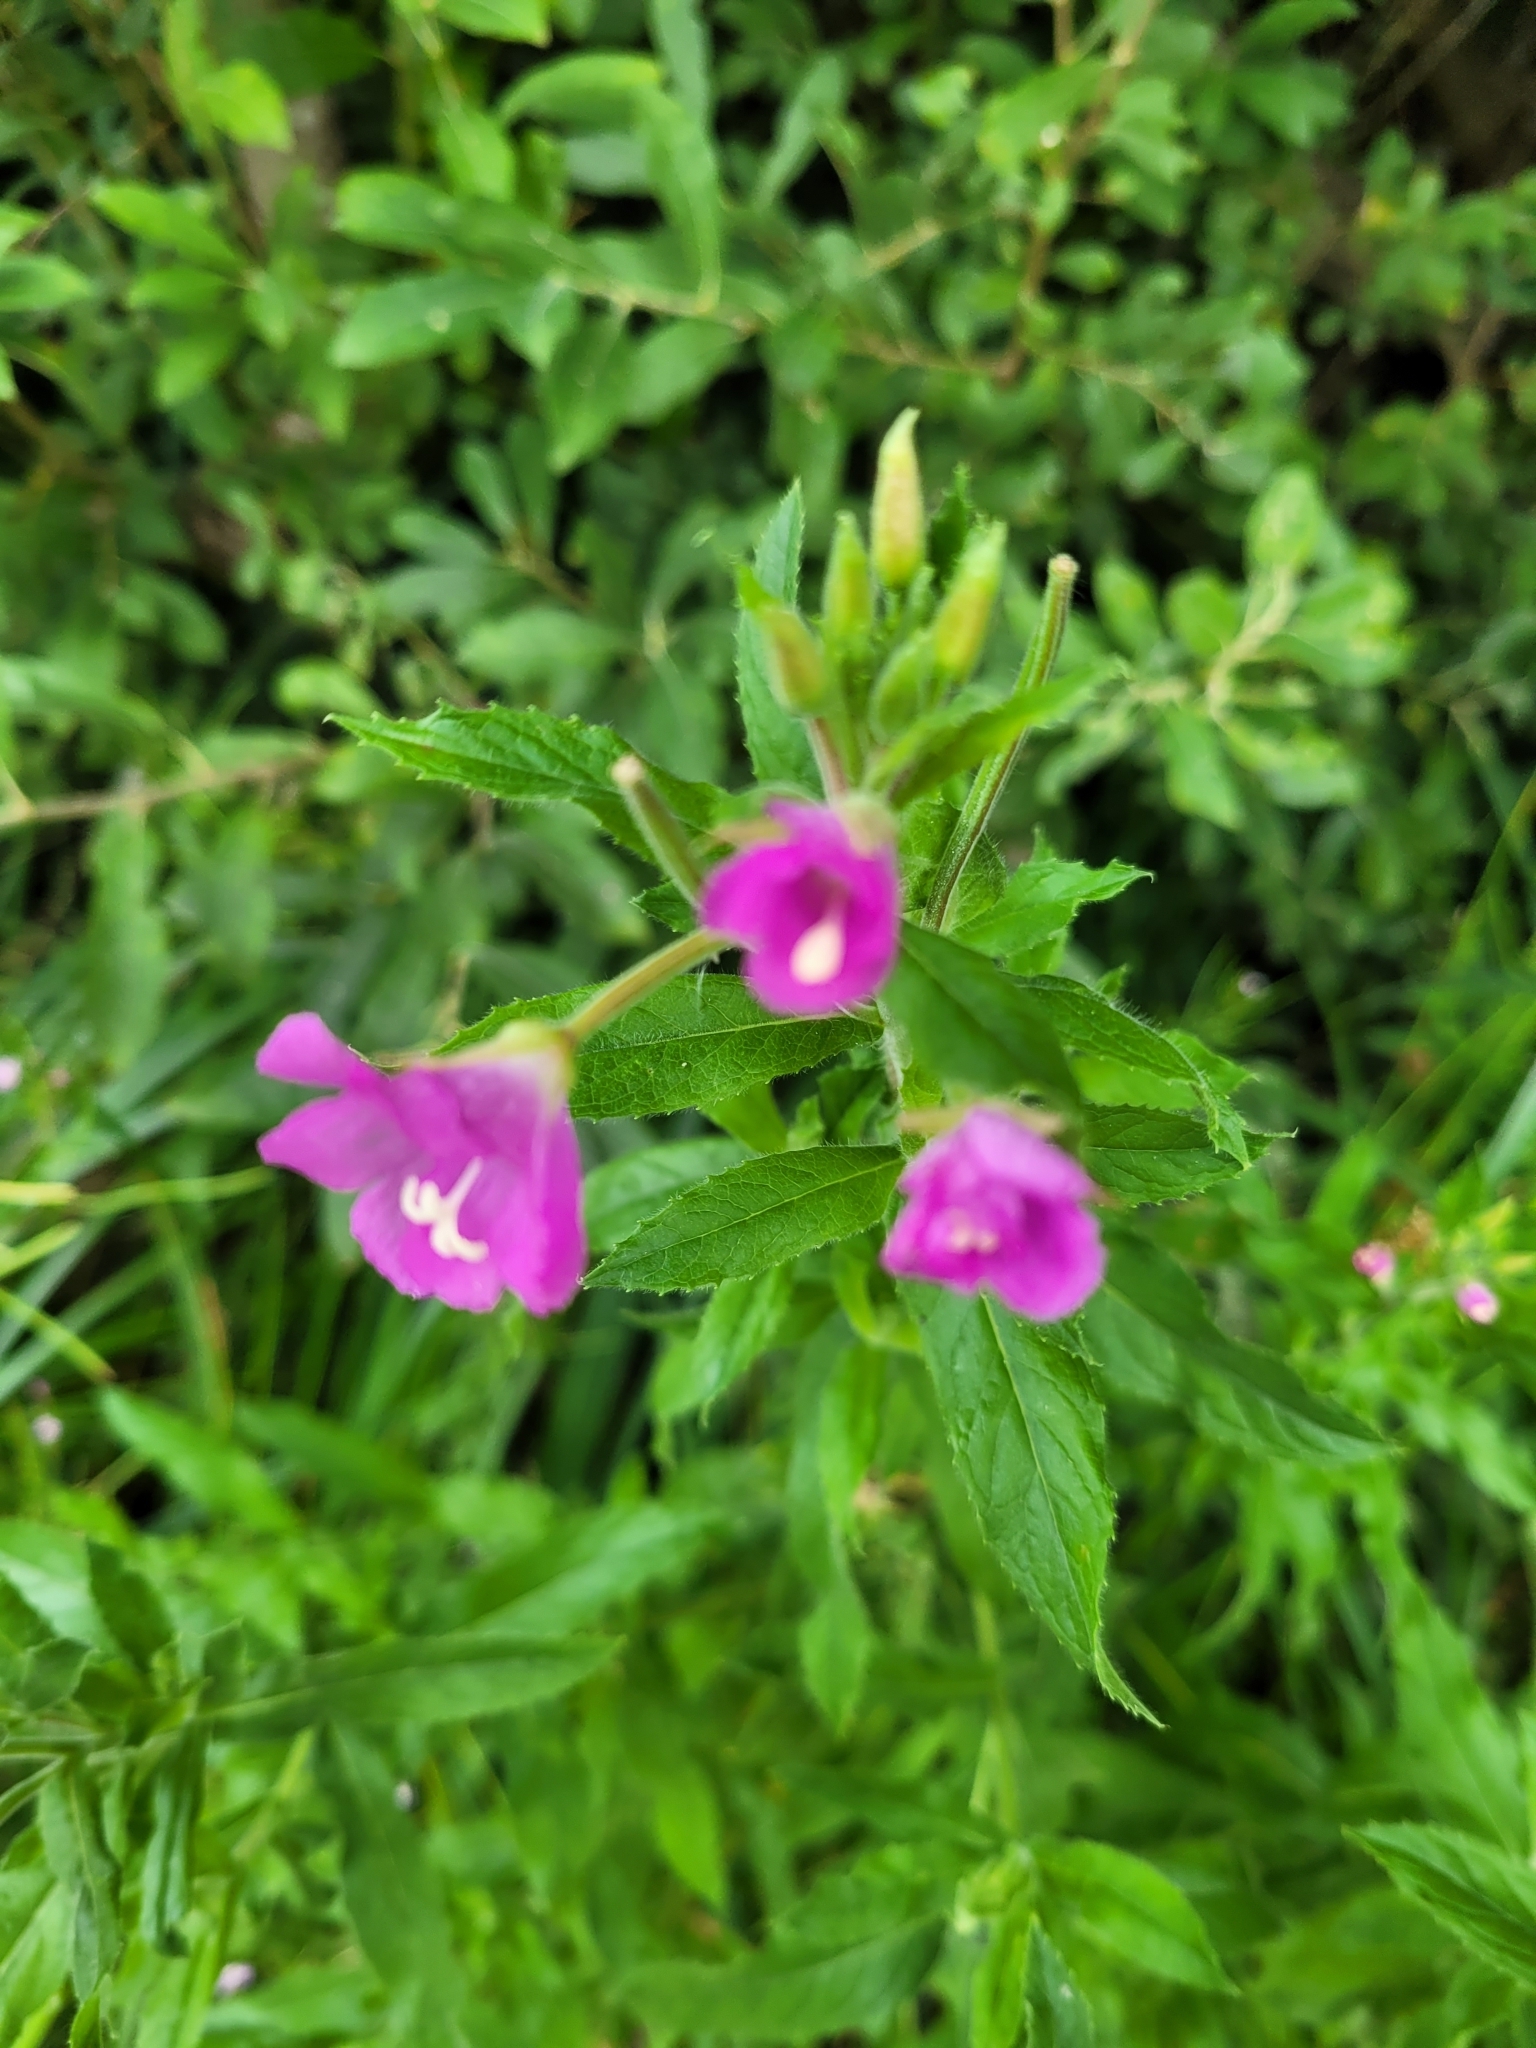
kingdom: Plantae
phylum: Tracheophyta
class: Magnoliopsida
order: Myrtales
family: Onagraceae
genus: Epilobium
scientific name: Epilobium hirsutum
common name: Great willowherb
